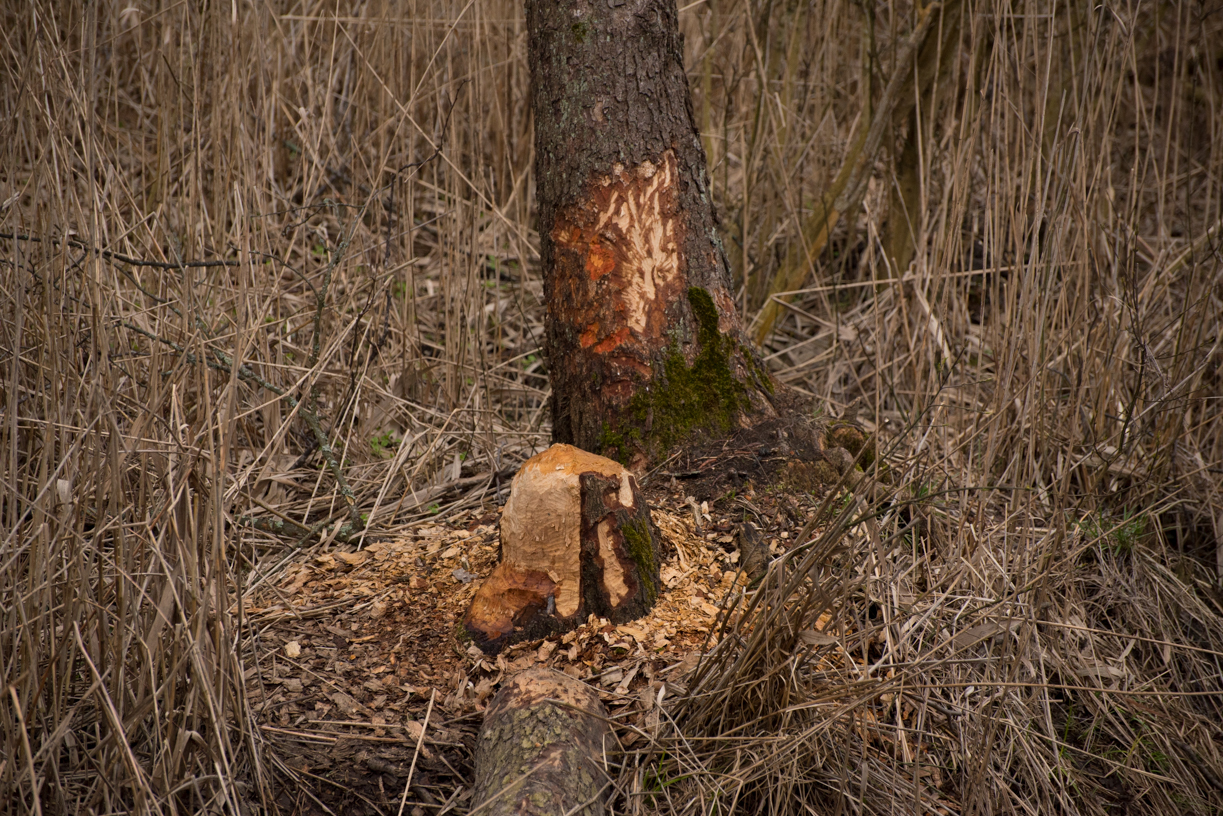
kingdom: Animalia
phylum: Chordata
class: Mammalia
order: Rodentia
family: Castoridae
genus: Castor
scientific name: Castor fiber
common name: Eurasian beaver
